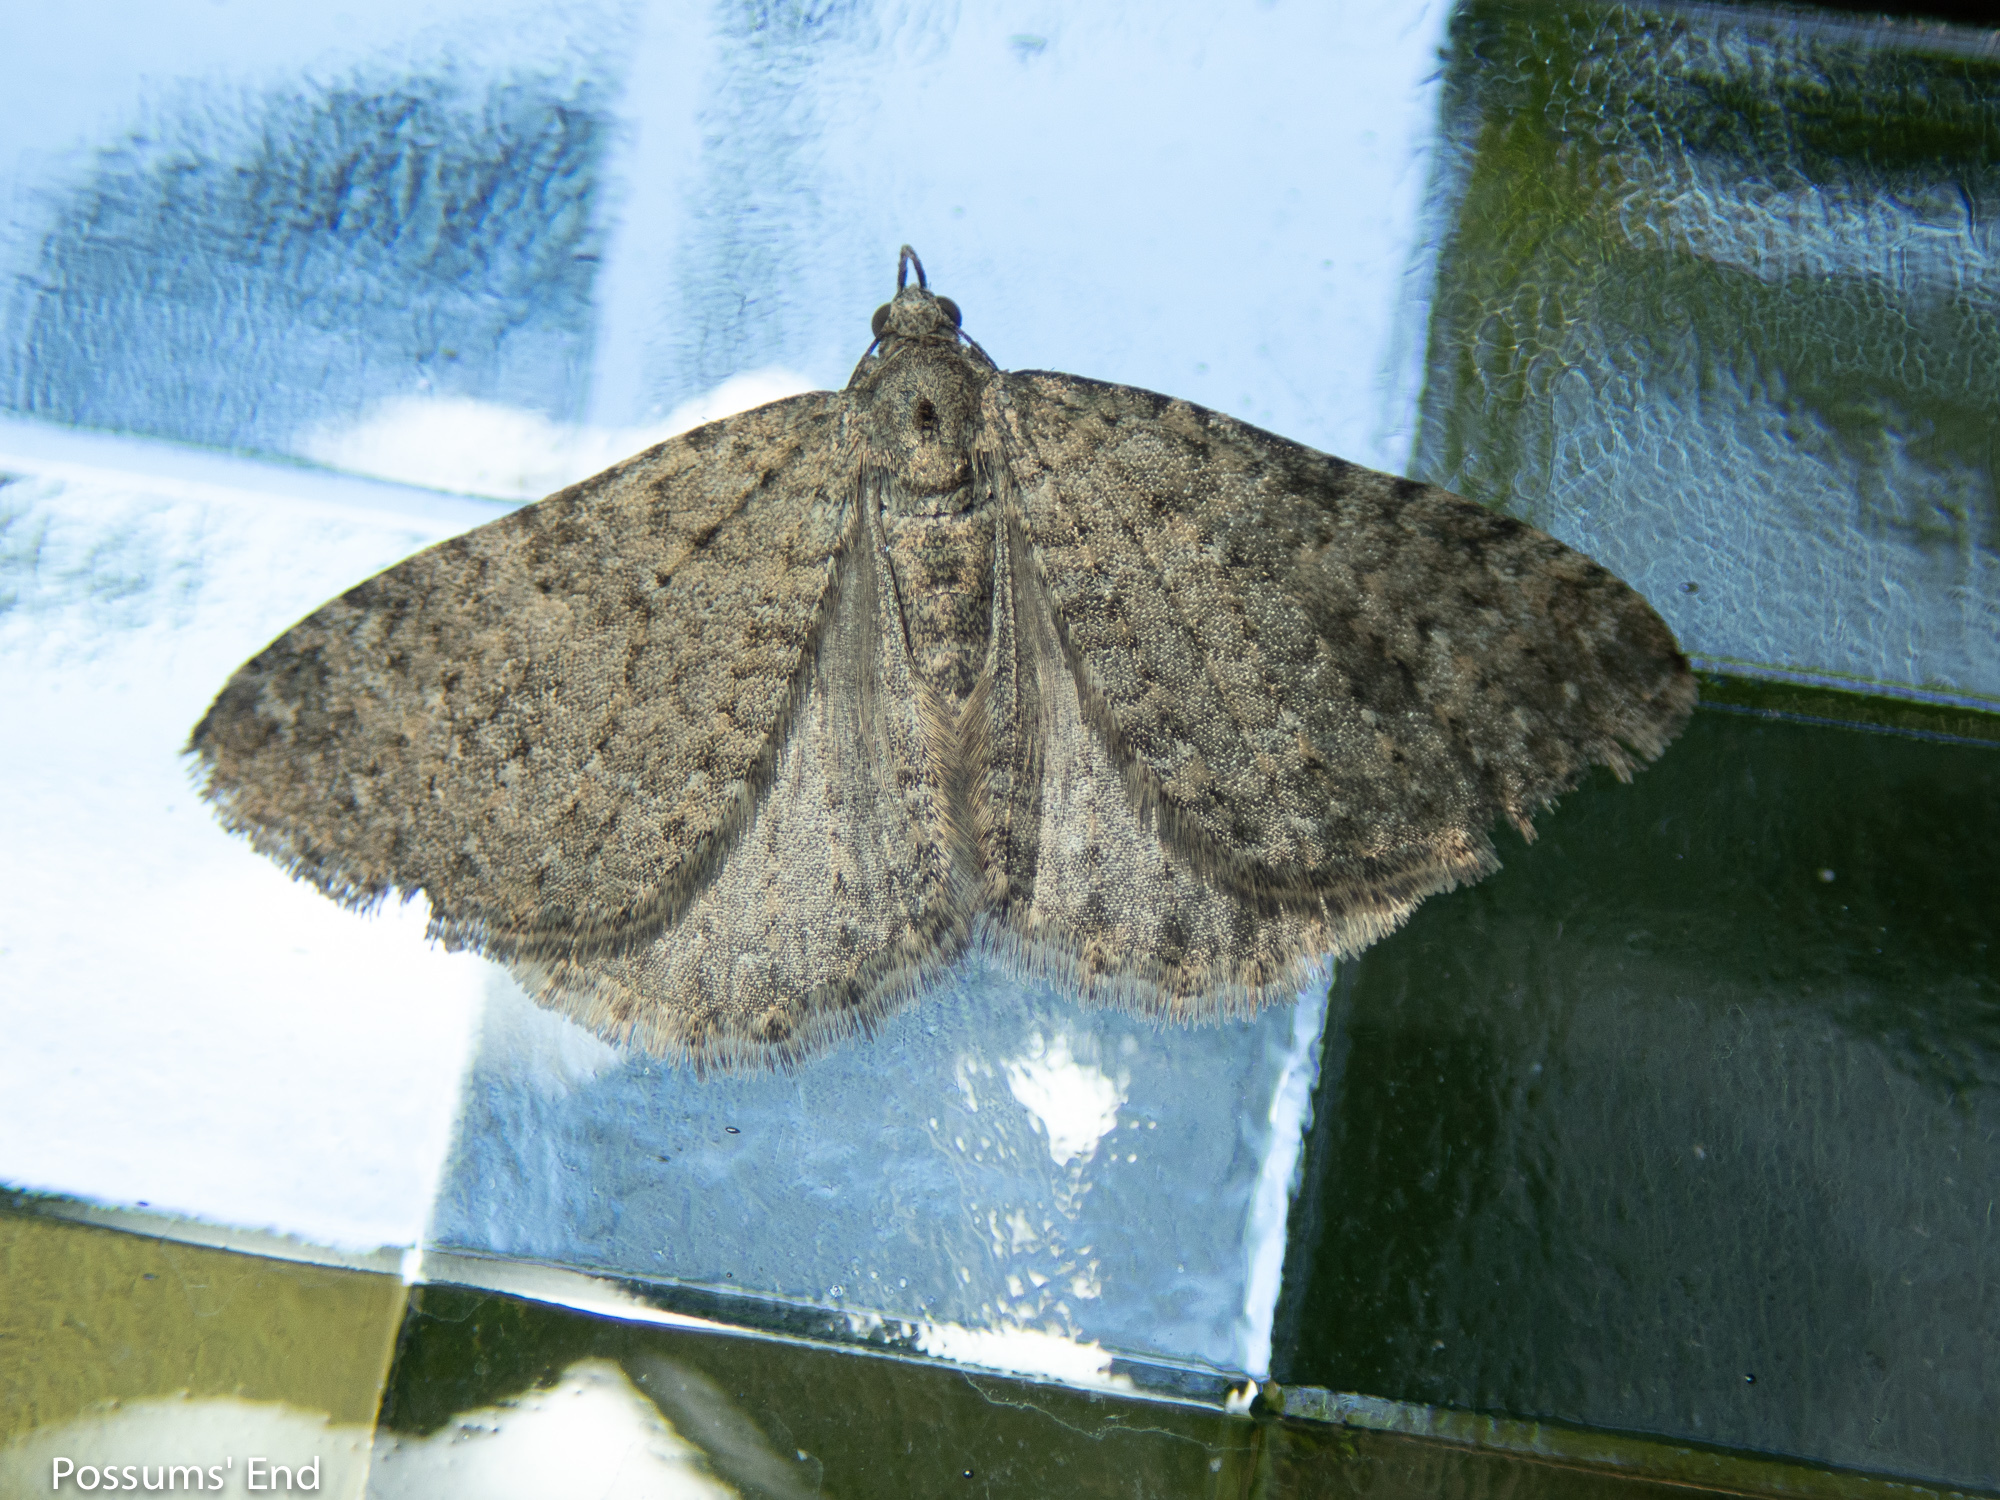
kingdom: Animalia
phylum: Arthropoda
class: Insecta
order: Lepidoptera
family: Geometridae
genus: Helastia
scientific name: Helastia corcularia
